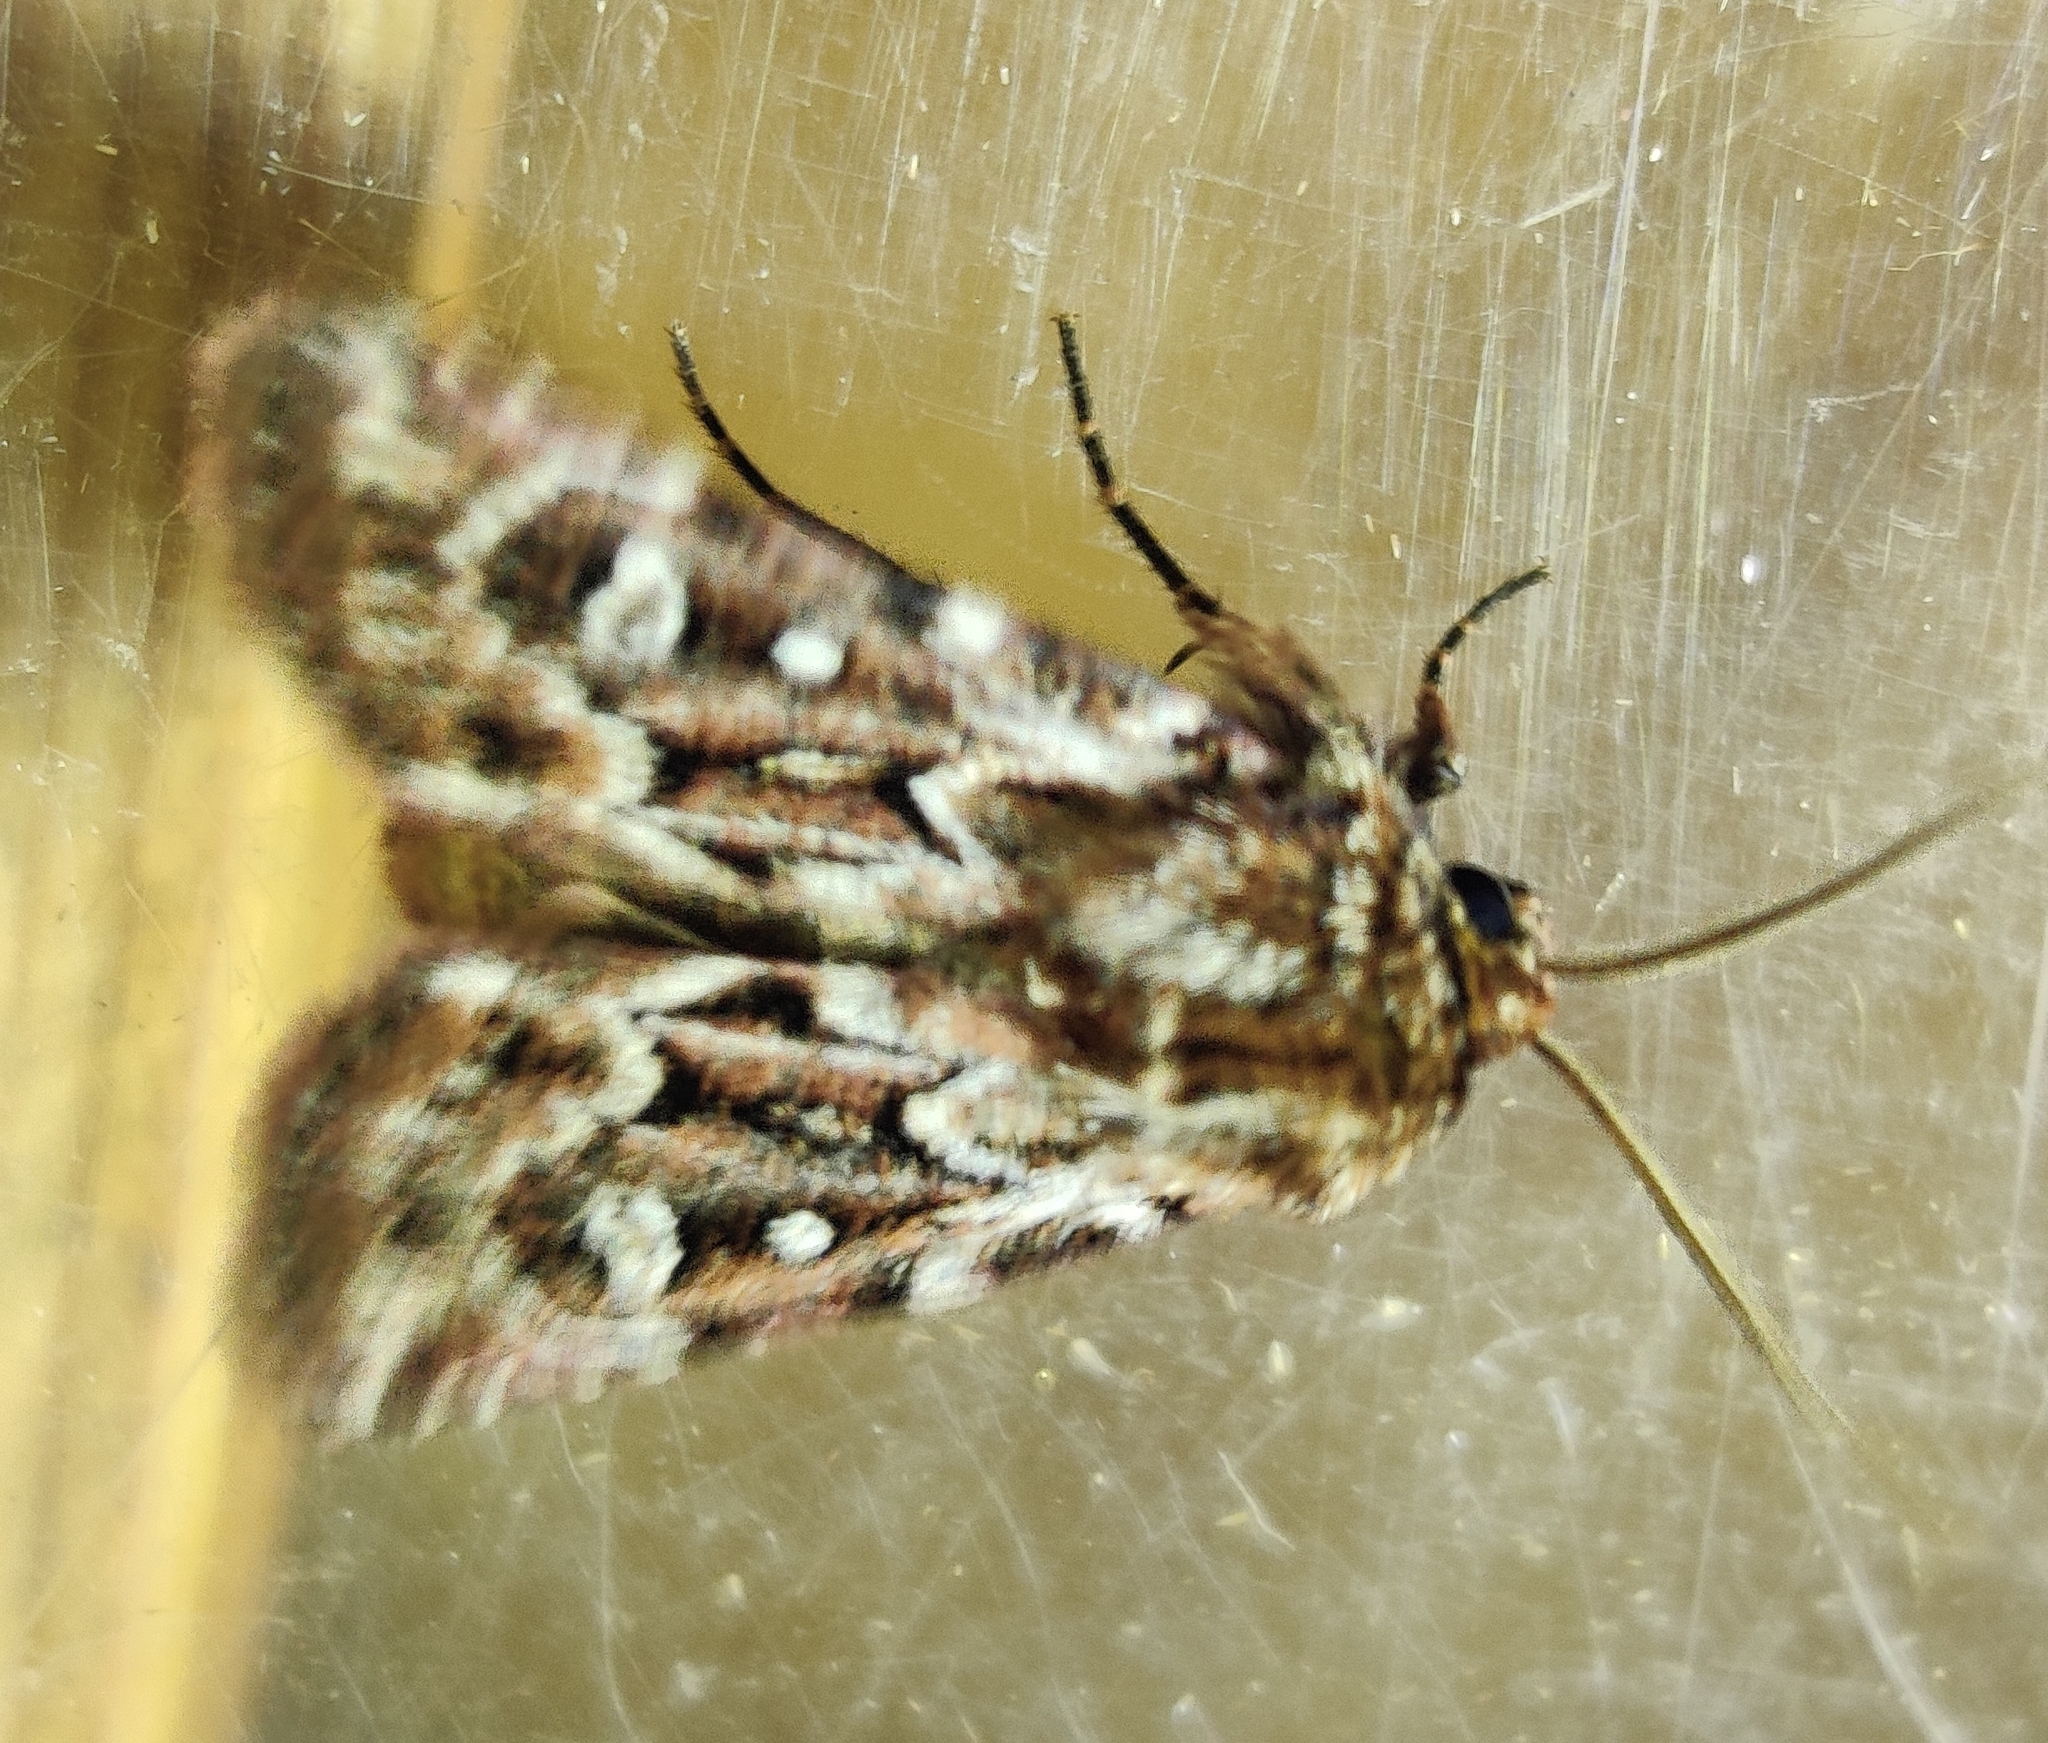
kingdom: Animalia
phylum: Arthropoda
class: Insecta
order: Lepidoptera
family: Noctuidae
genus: Lycophotia
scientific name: Lycophotia porphyrea
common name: True lover's knot
